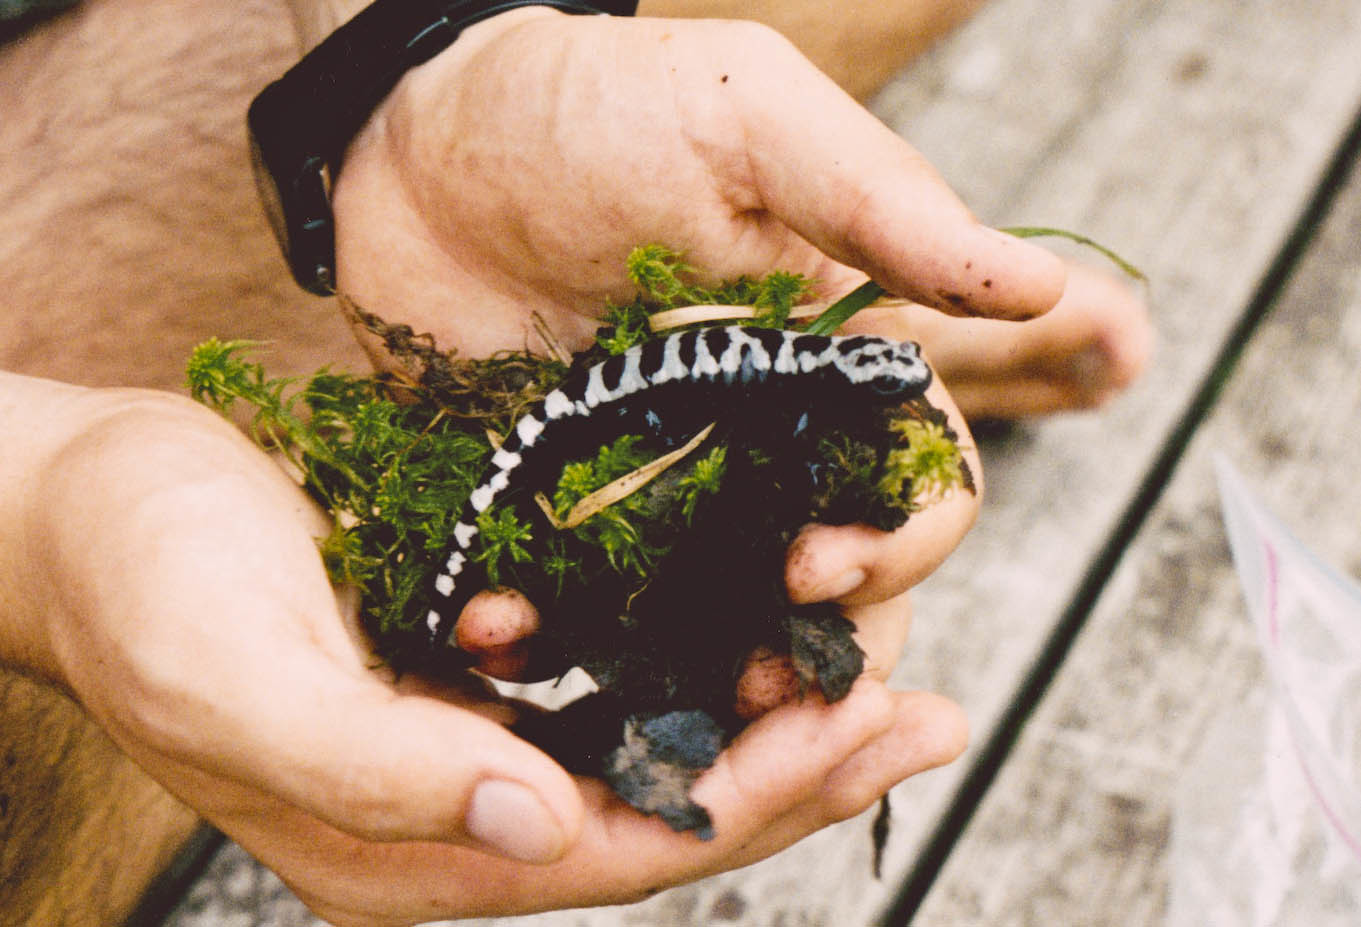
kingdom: Animalia
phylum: Chordata
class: Amphibia
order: Caudata
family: Ambystomatidae
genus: Ambystoma
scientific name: Ambystoma opacum
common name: Marbled salamander
